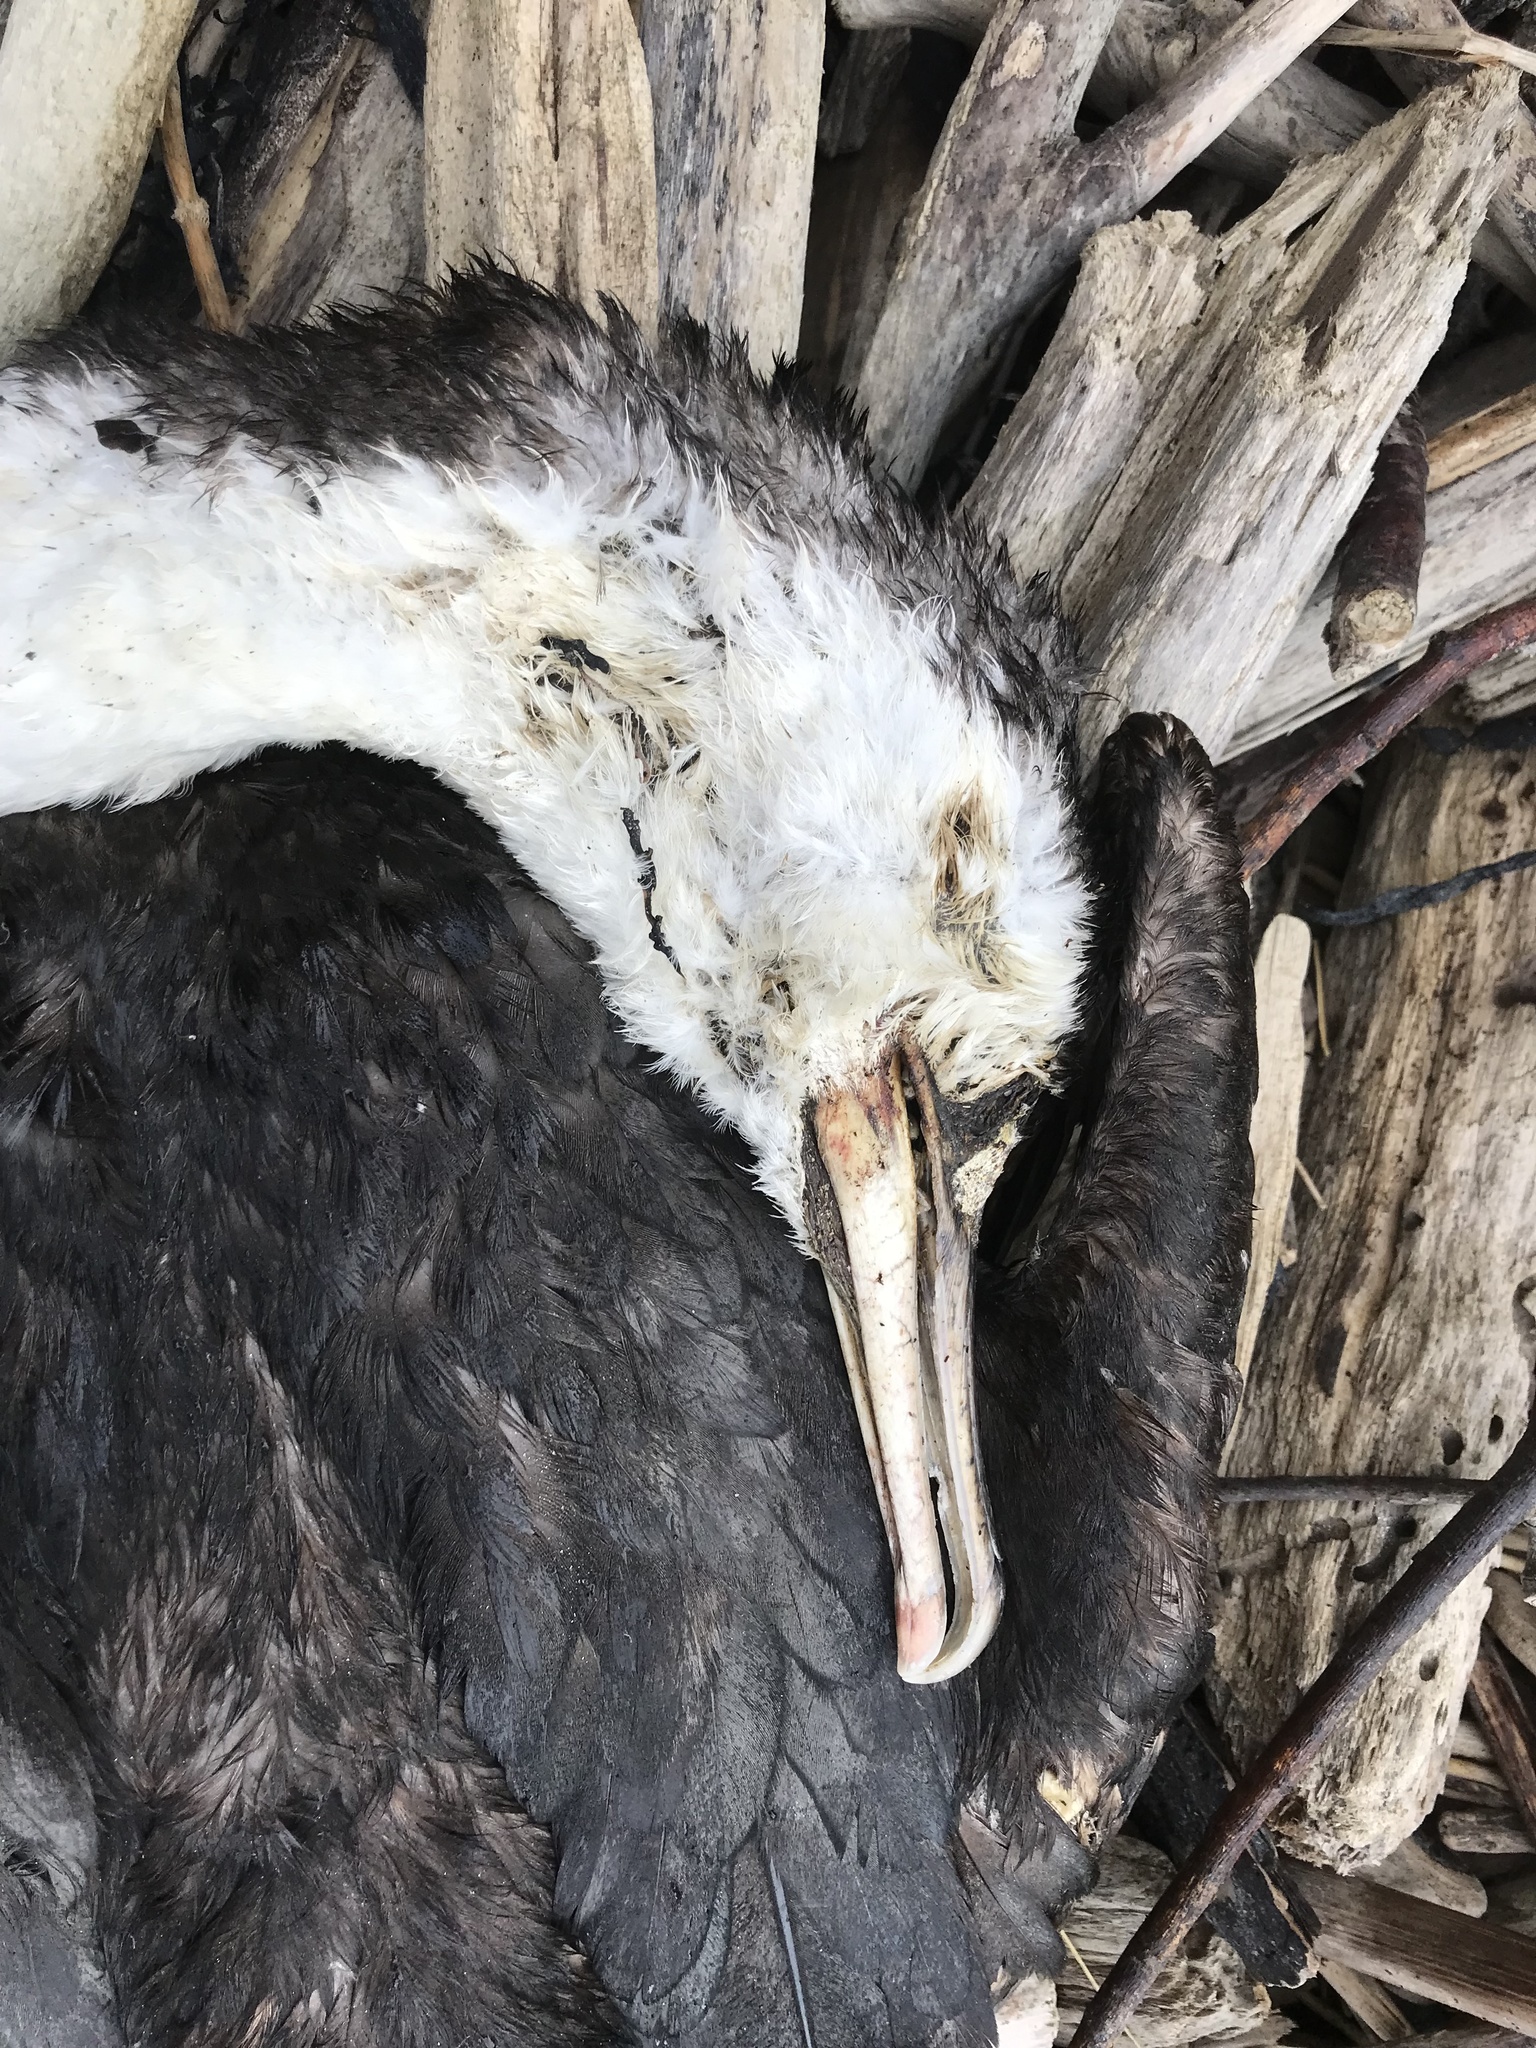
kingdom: Animalia
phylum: Chordata
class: Aves
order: Suliformes
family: Phalacrocoracidae
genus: Phalacrocorax
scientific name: Phalacrocorax varius
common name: Pied cormorant
